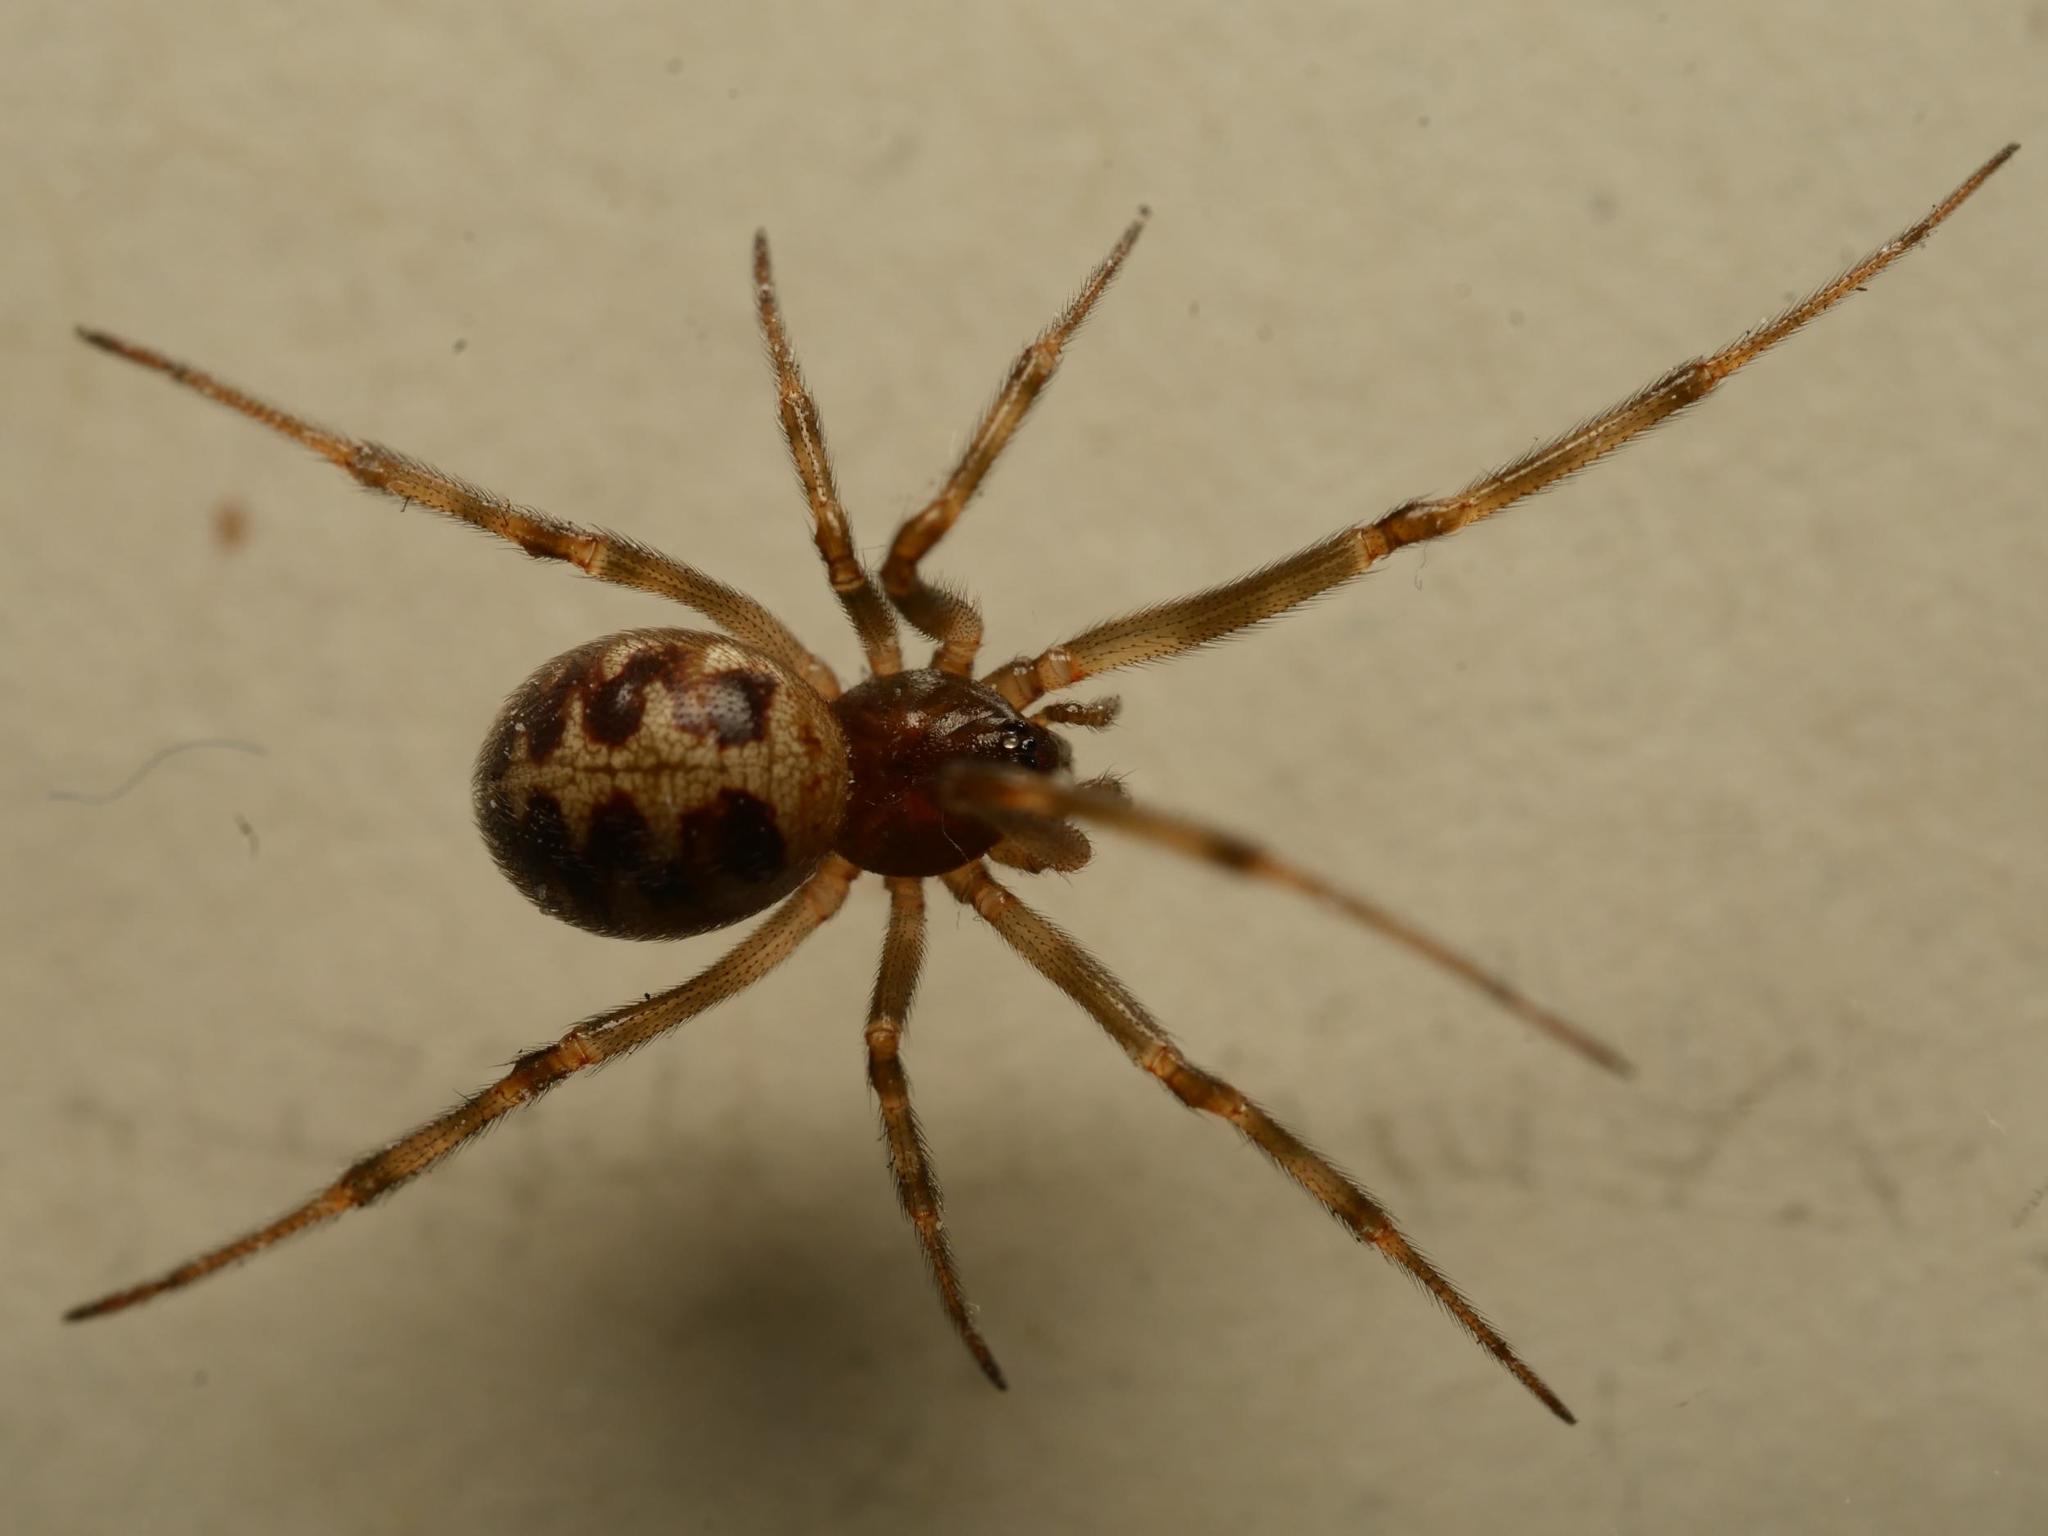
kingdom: Animalia
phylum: Arthropoda
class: Arachnida
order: Araneae
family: Theridiidae
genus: Steatoda
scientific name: Steatoda triangulosa
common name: Triangulate bud spider
